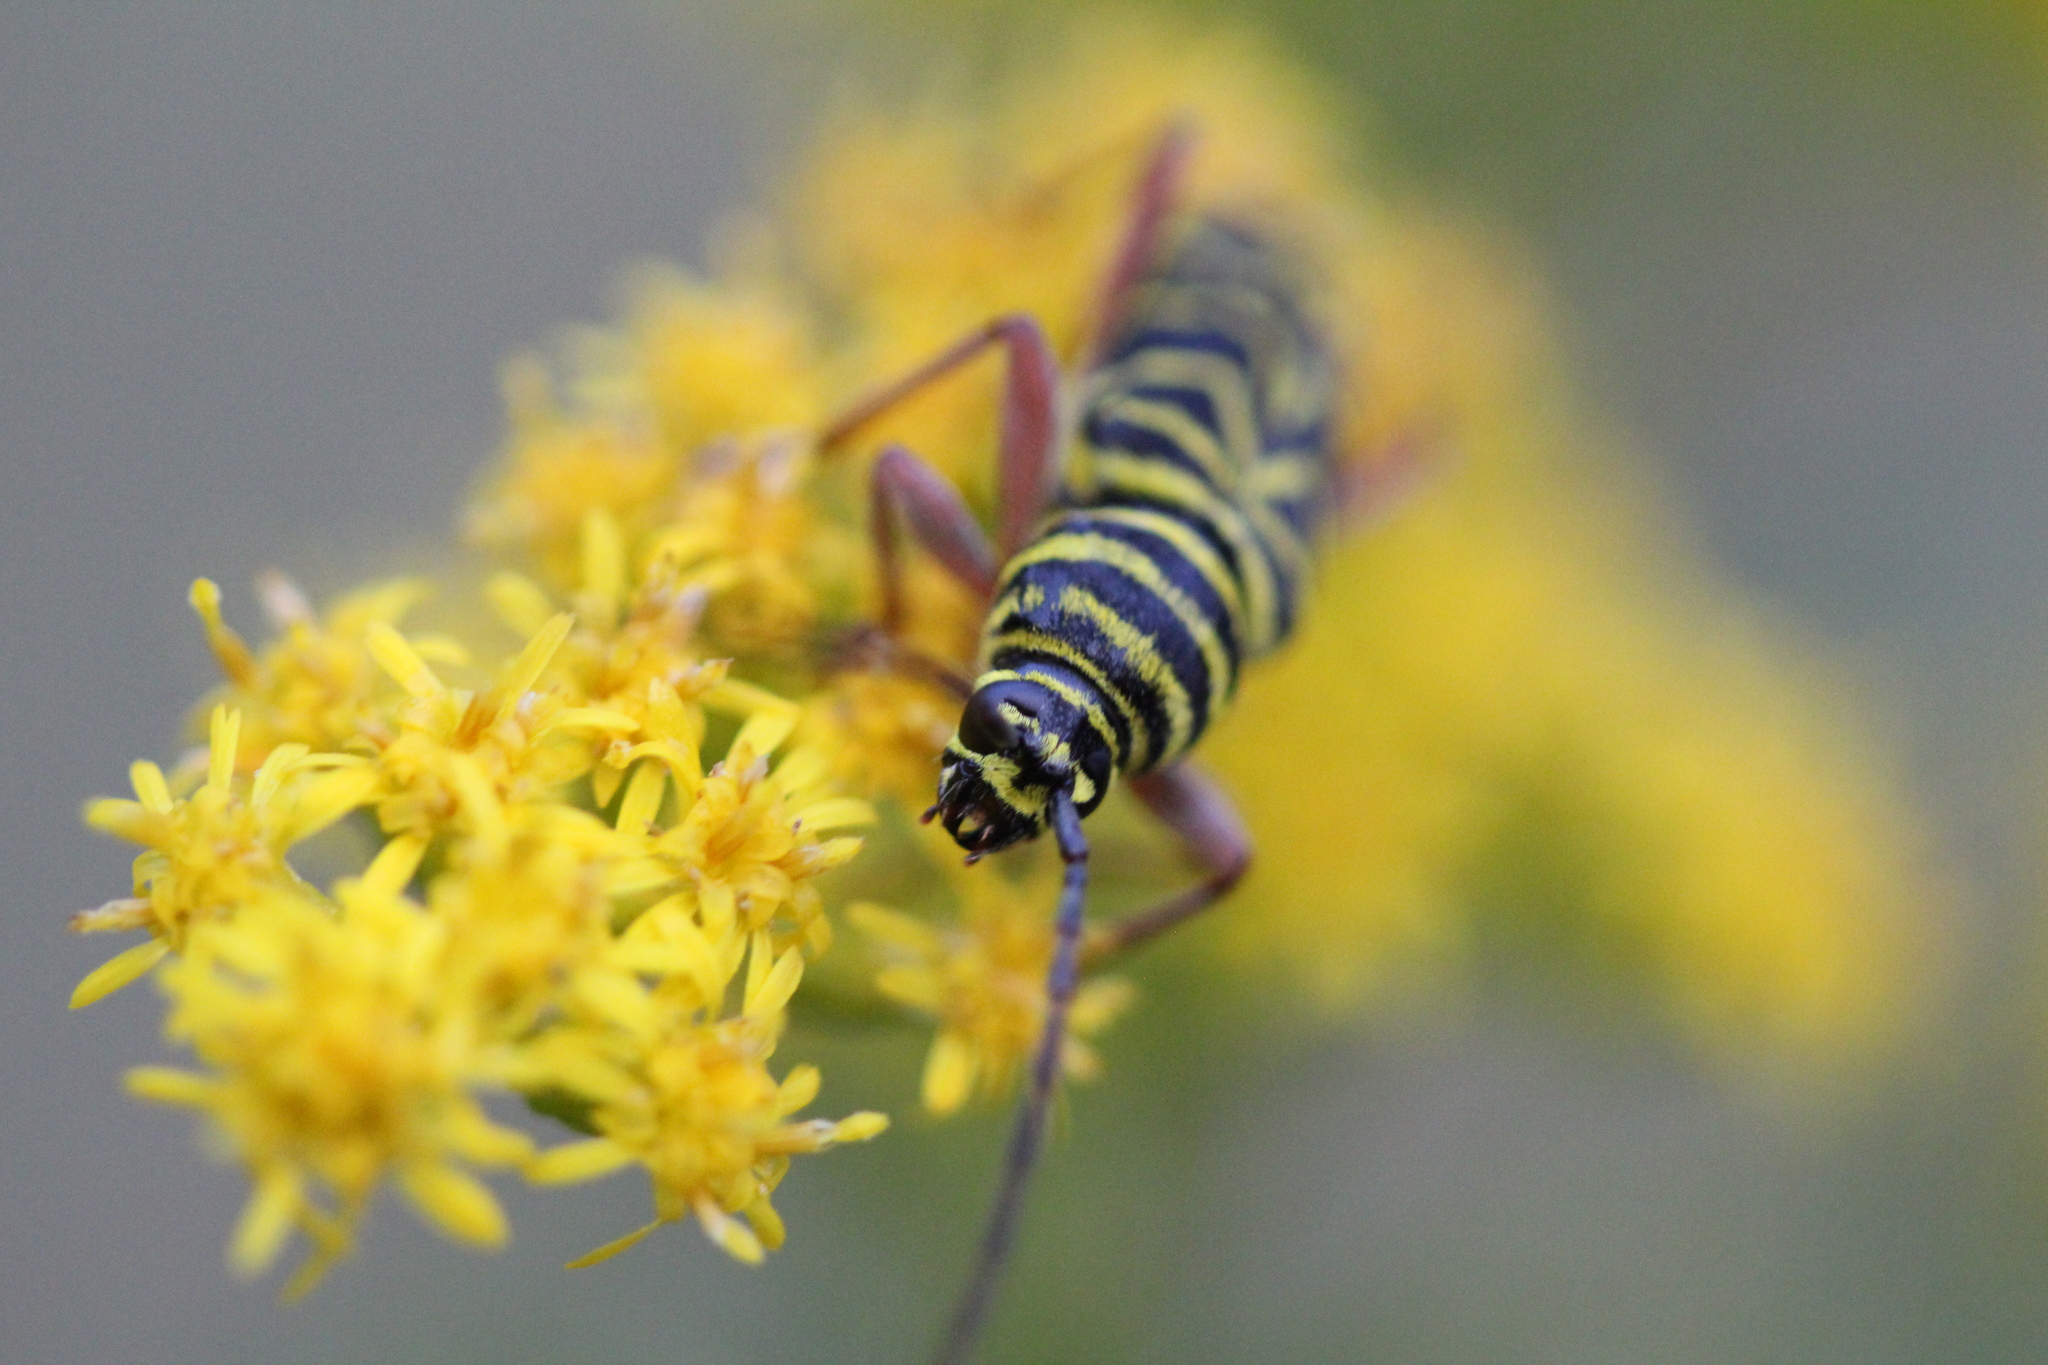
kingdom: Animalia
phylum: Arthropoda
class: Insecta
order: Coleoptera
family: Cerambycidae
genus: Megacyllene
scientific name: Megacyllene robiniae
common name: Locust borer
